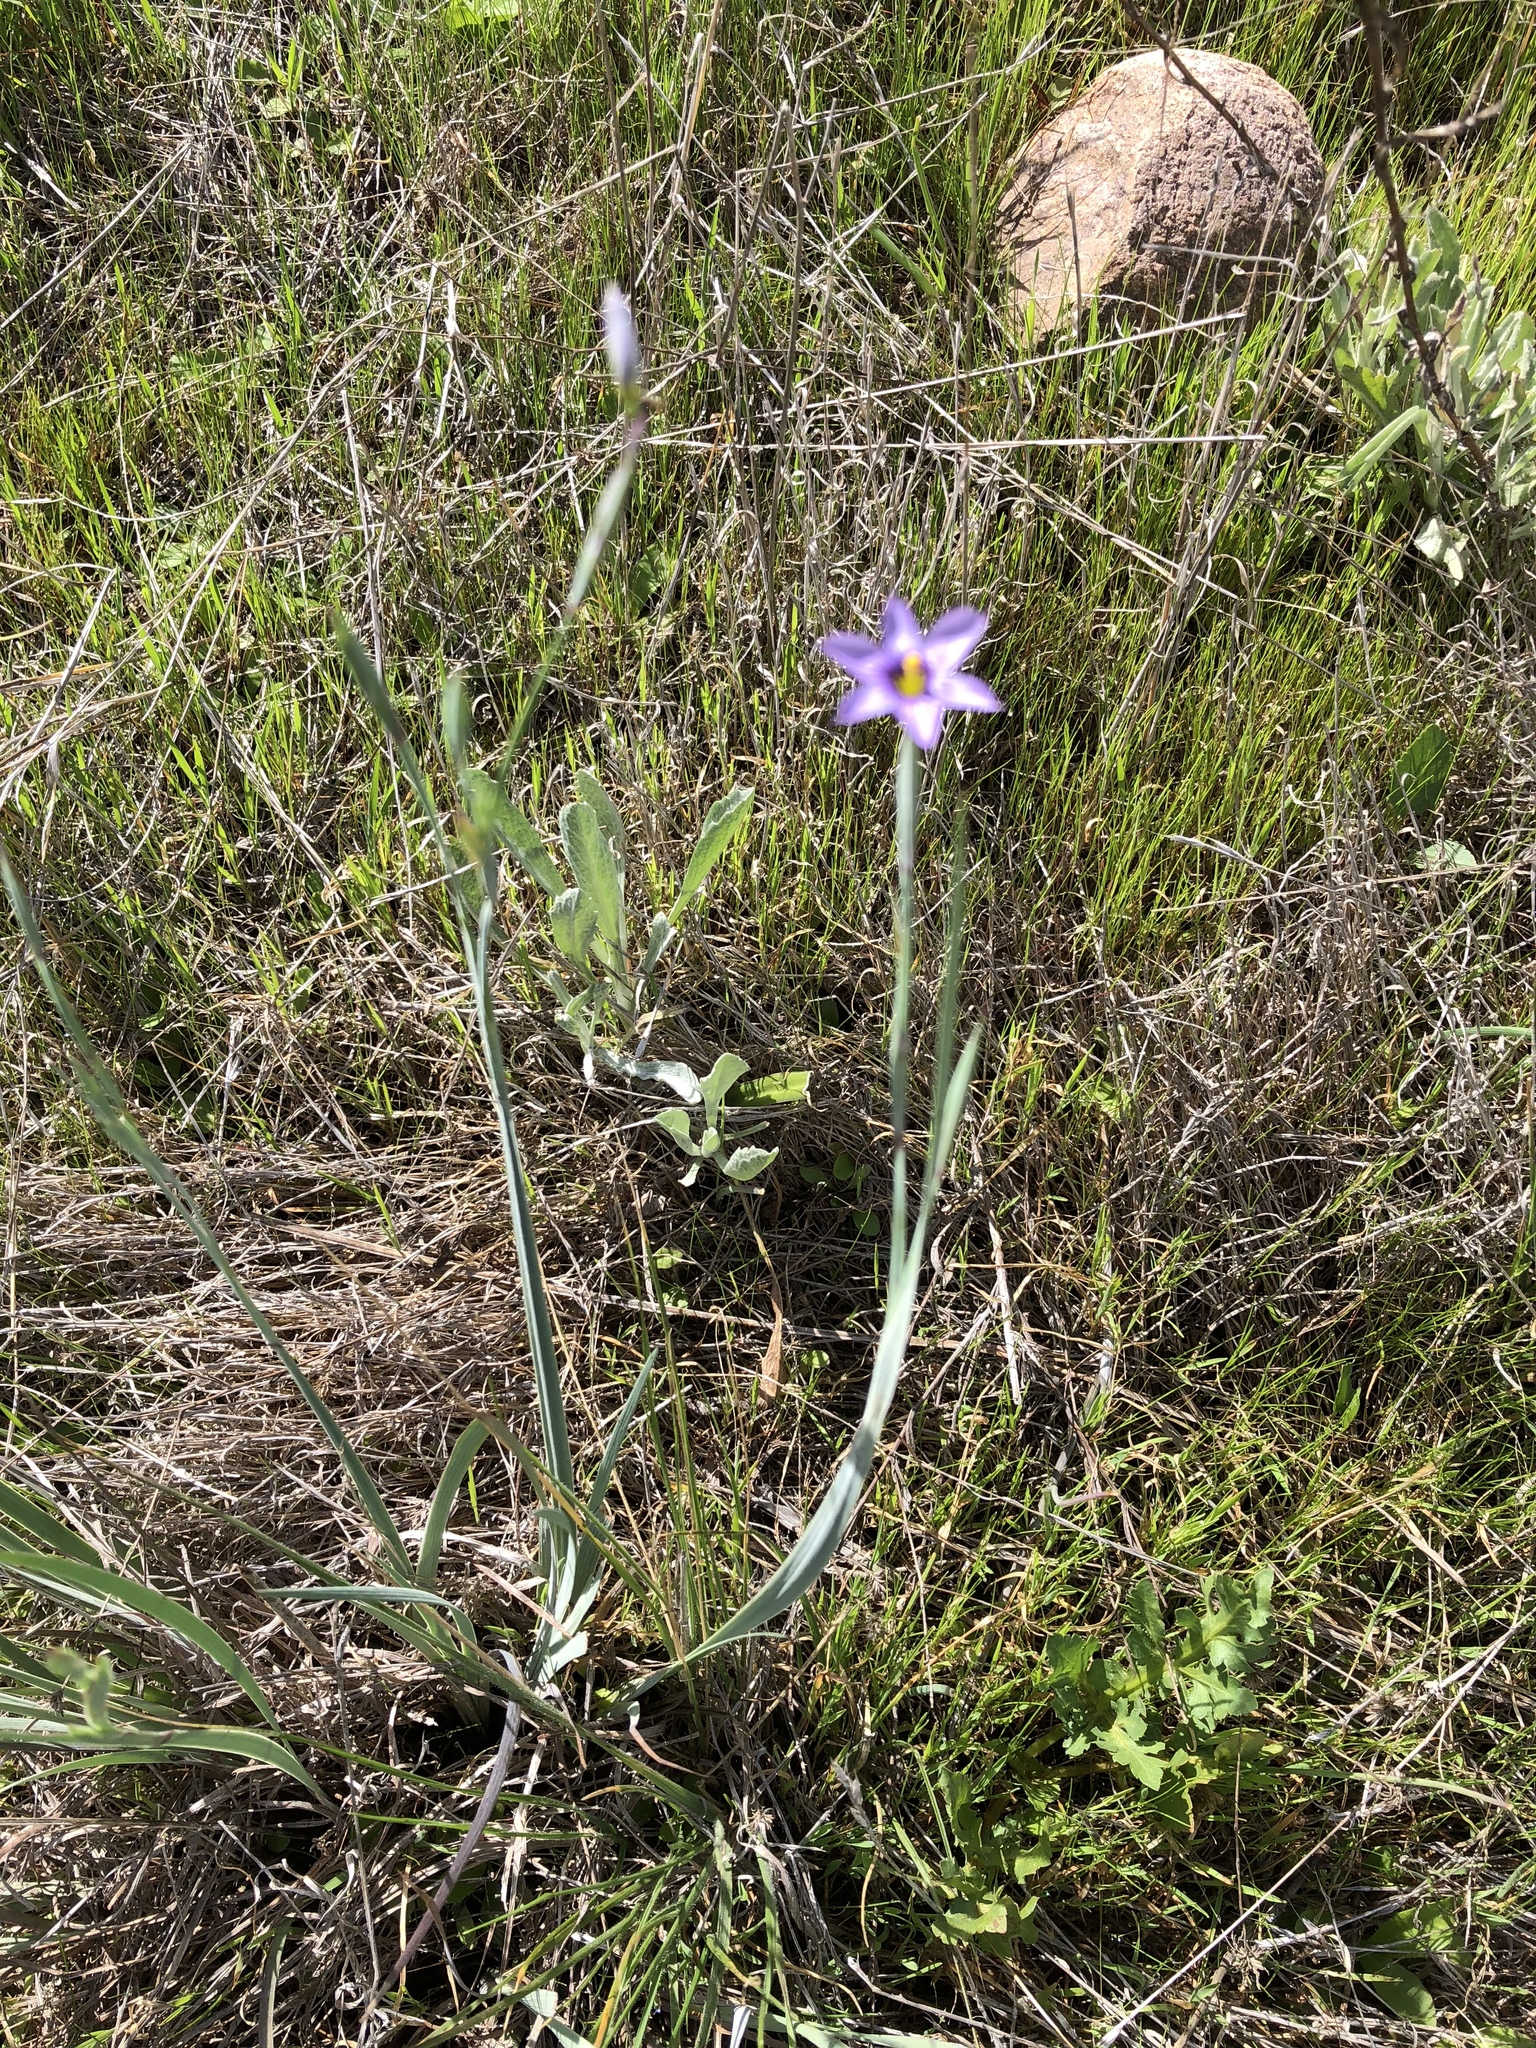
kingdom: Plantae
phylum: Tracheophyta
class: Liliopsida
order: Asparagales
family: Iridaceae
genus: Sisyrinchium
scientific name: Sisyrinchium bellum
